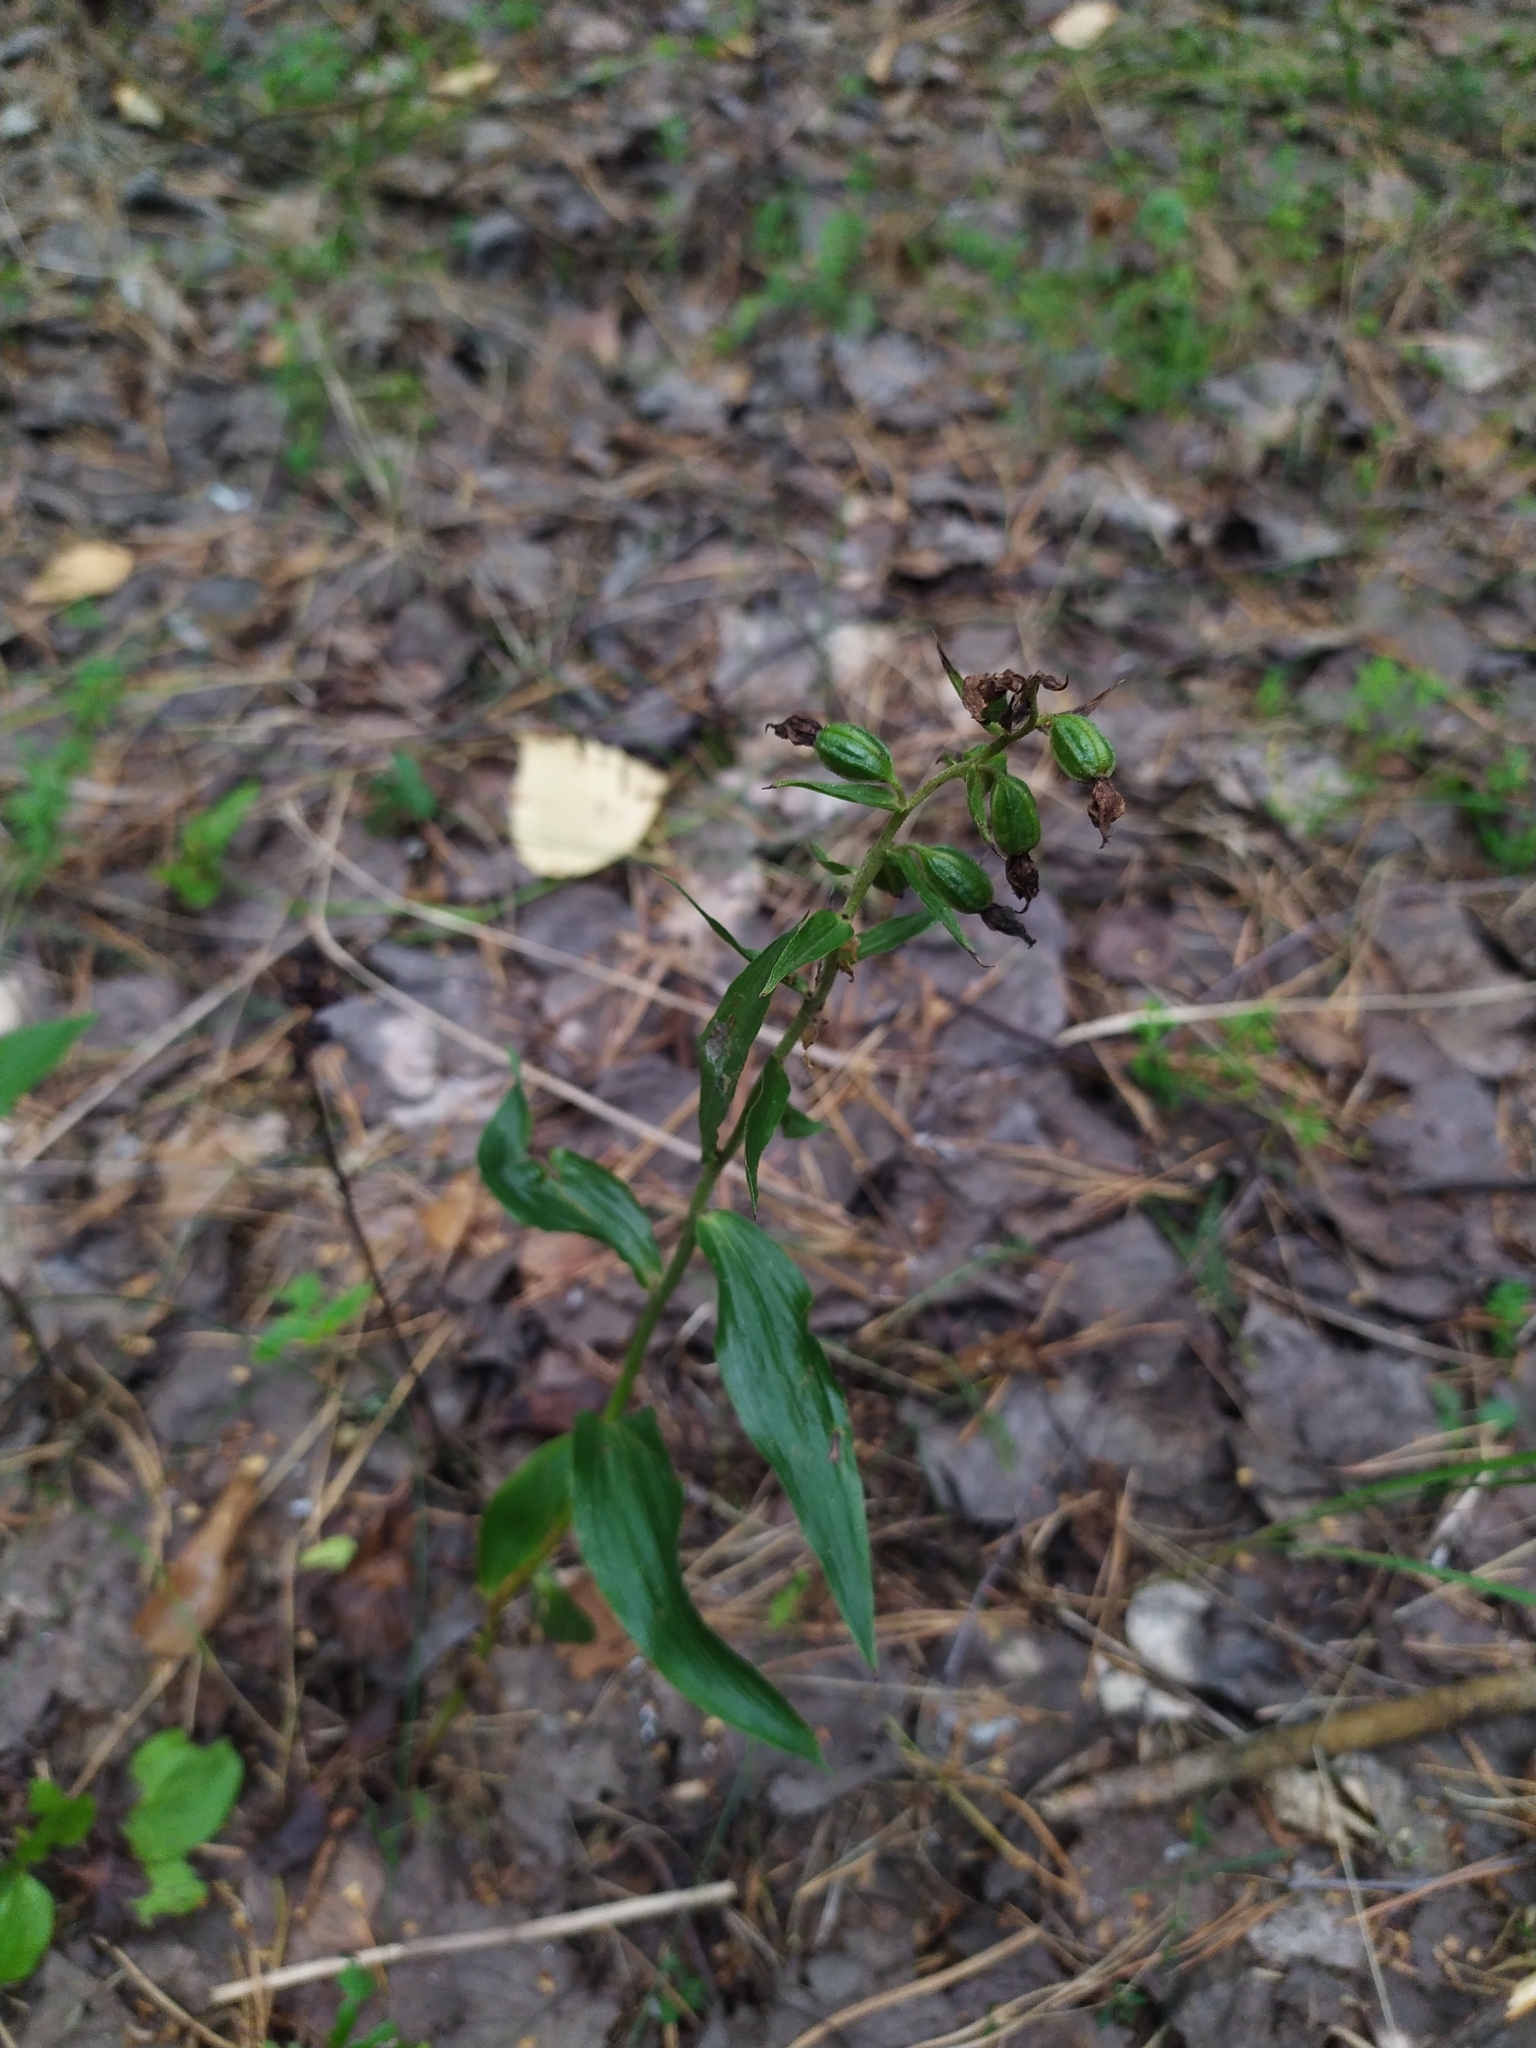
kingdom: Plantae
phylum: Tracheophyta
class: Liliopsida
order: Asparagales
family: Orchidaceae
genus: Epipactis
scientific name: Epipactis helleborine
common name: Broad-leaved helleborine
